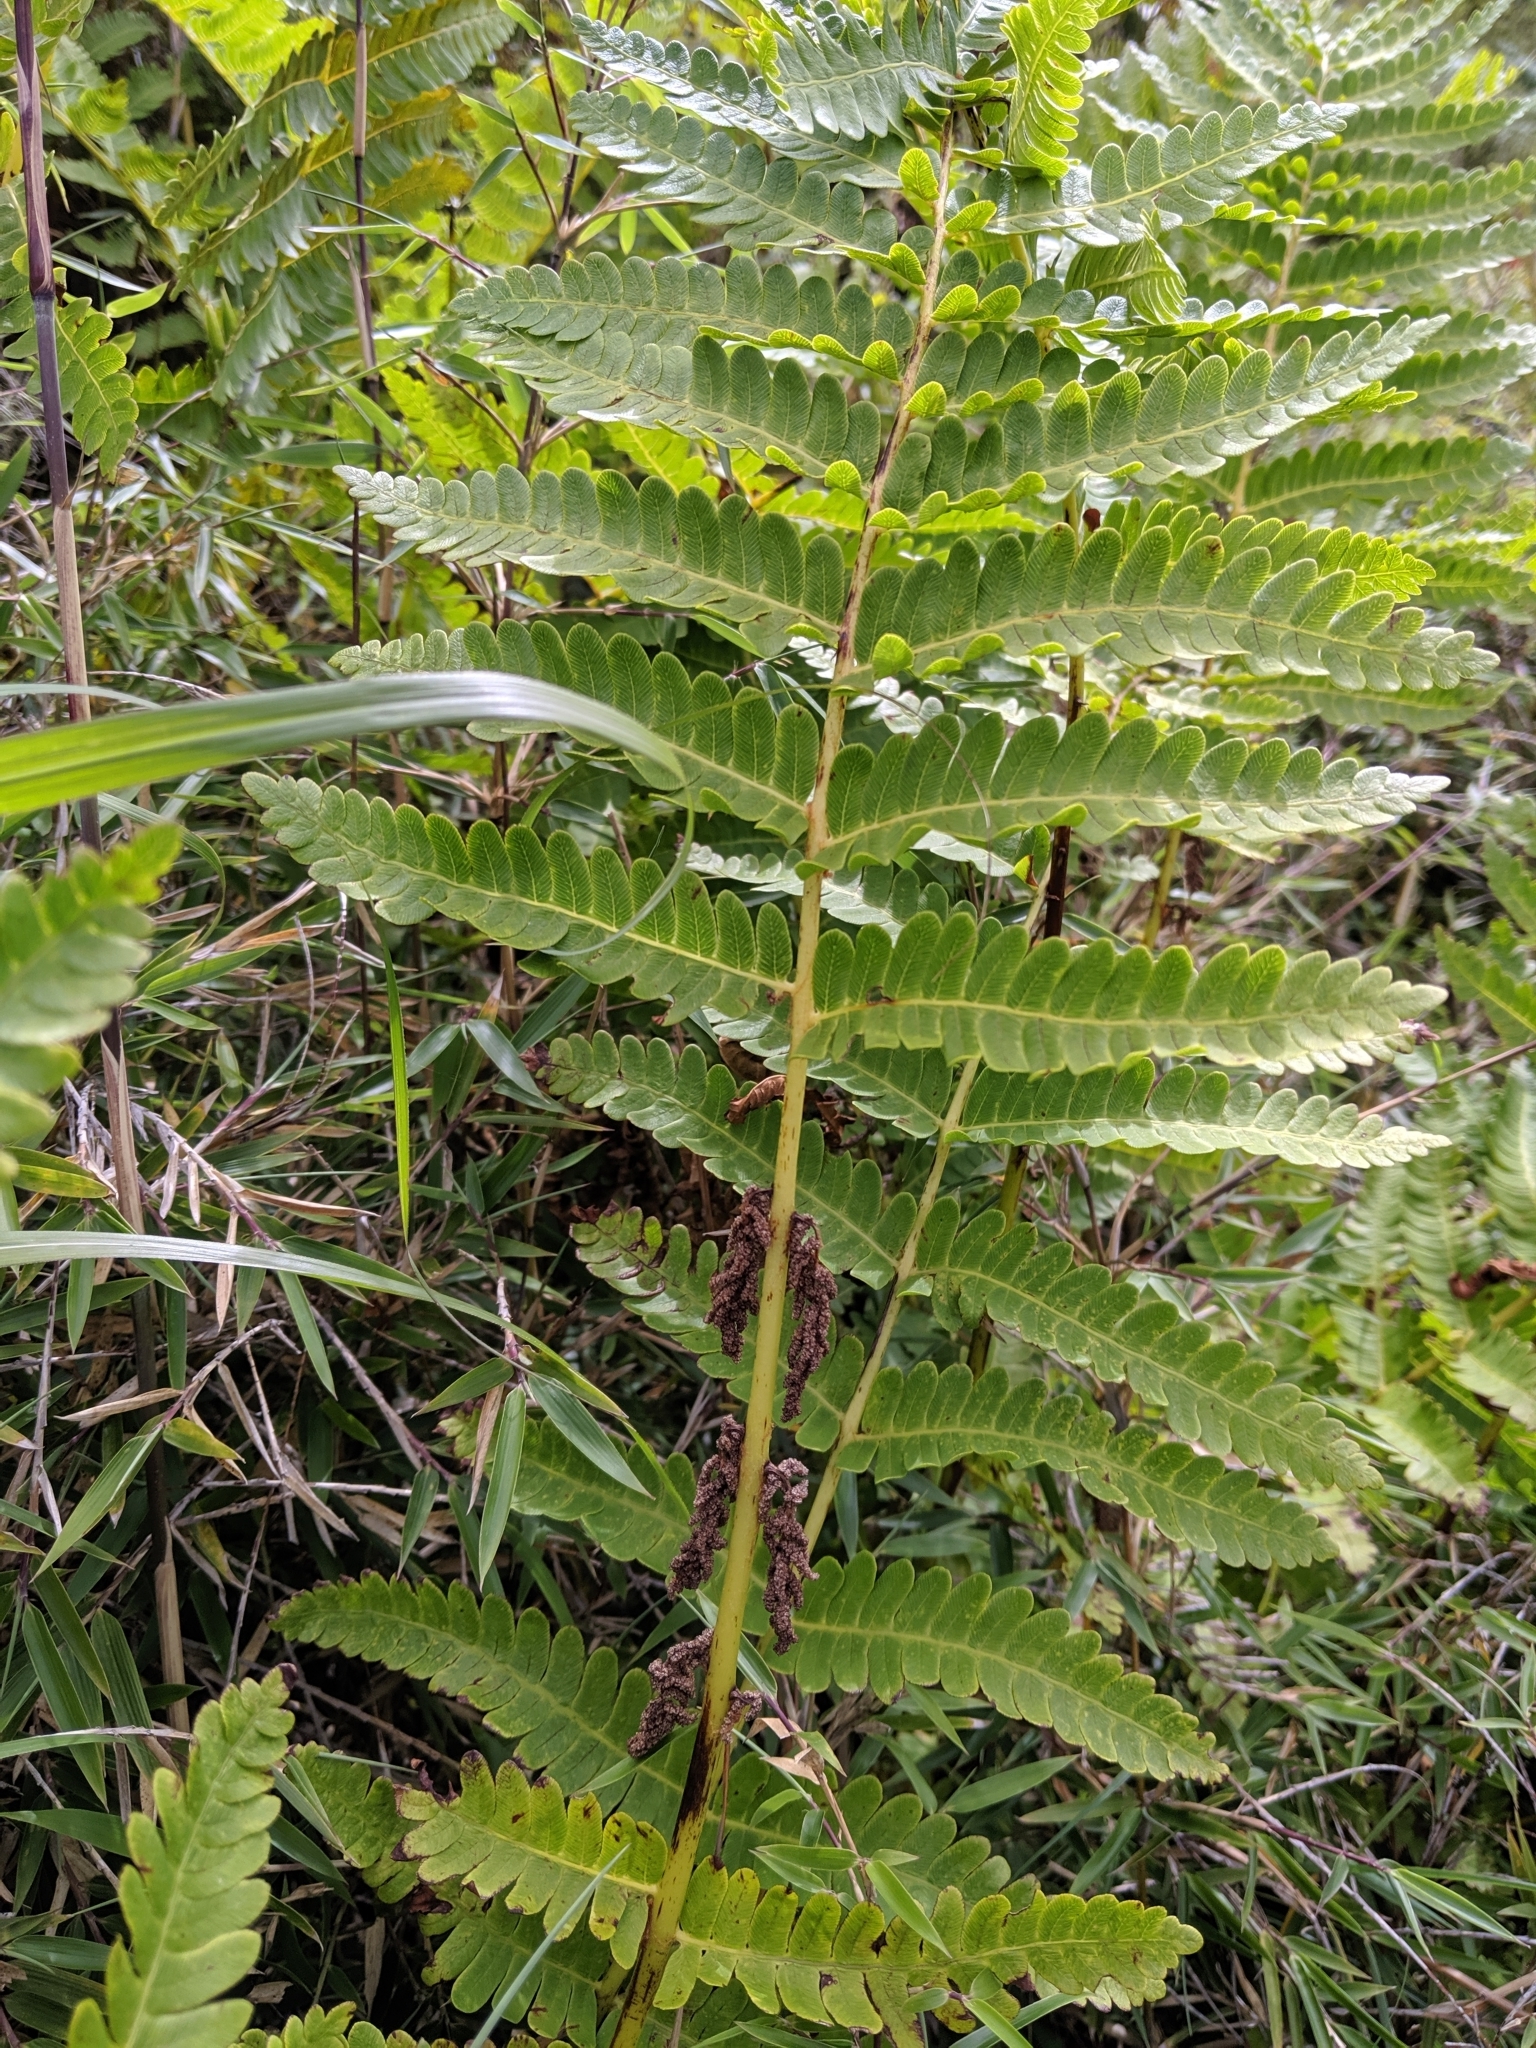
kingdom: Plantae
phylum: Tracheophyta
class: Polypodiopsida
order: Osmundales
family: Osmundaceae
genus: Claytosmunda
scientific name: Claytosmunda claytoniana
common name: Clayton's fern
